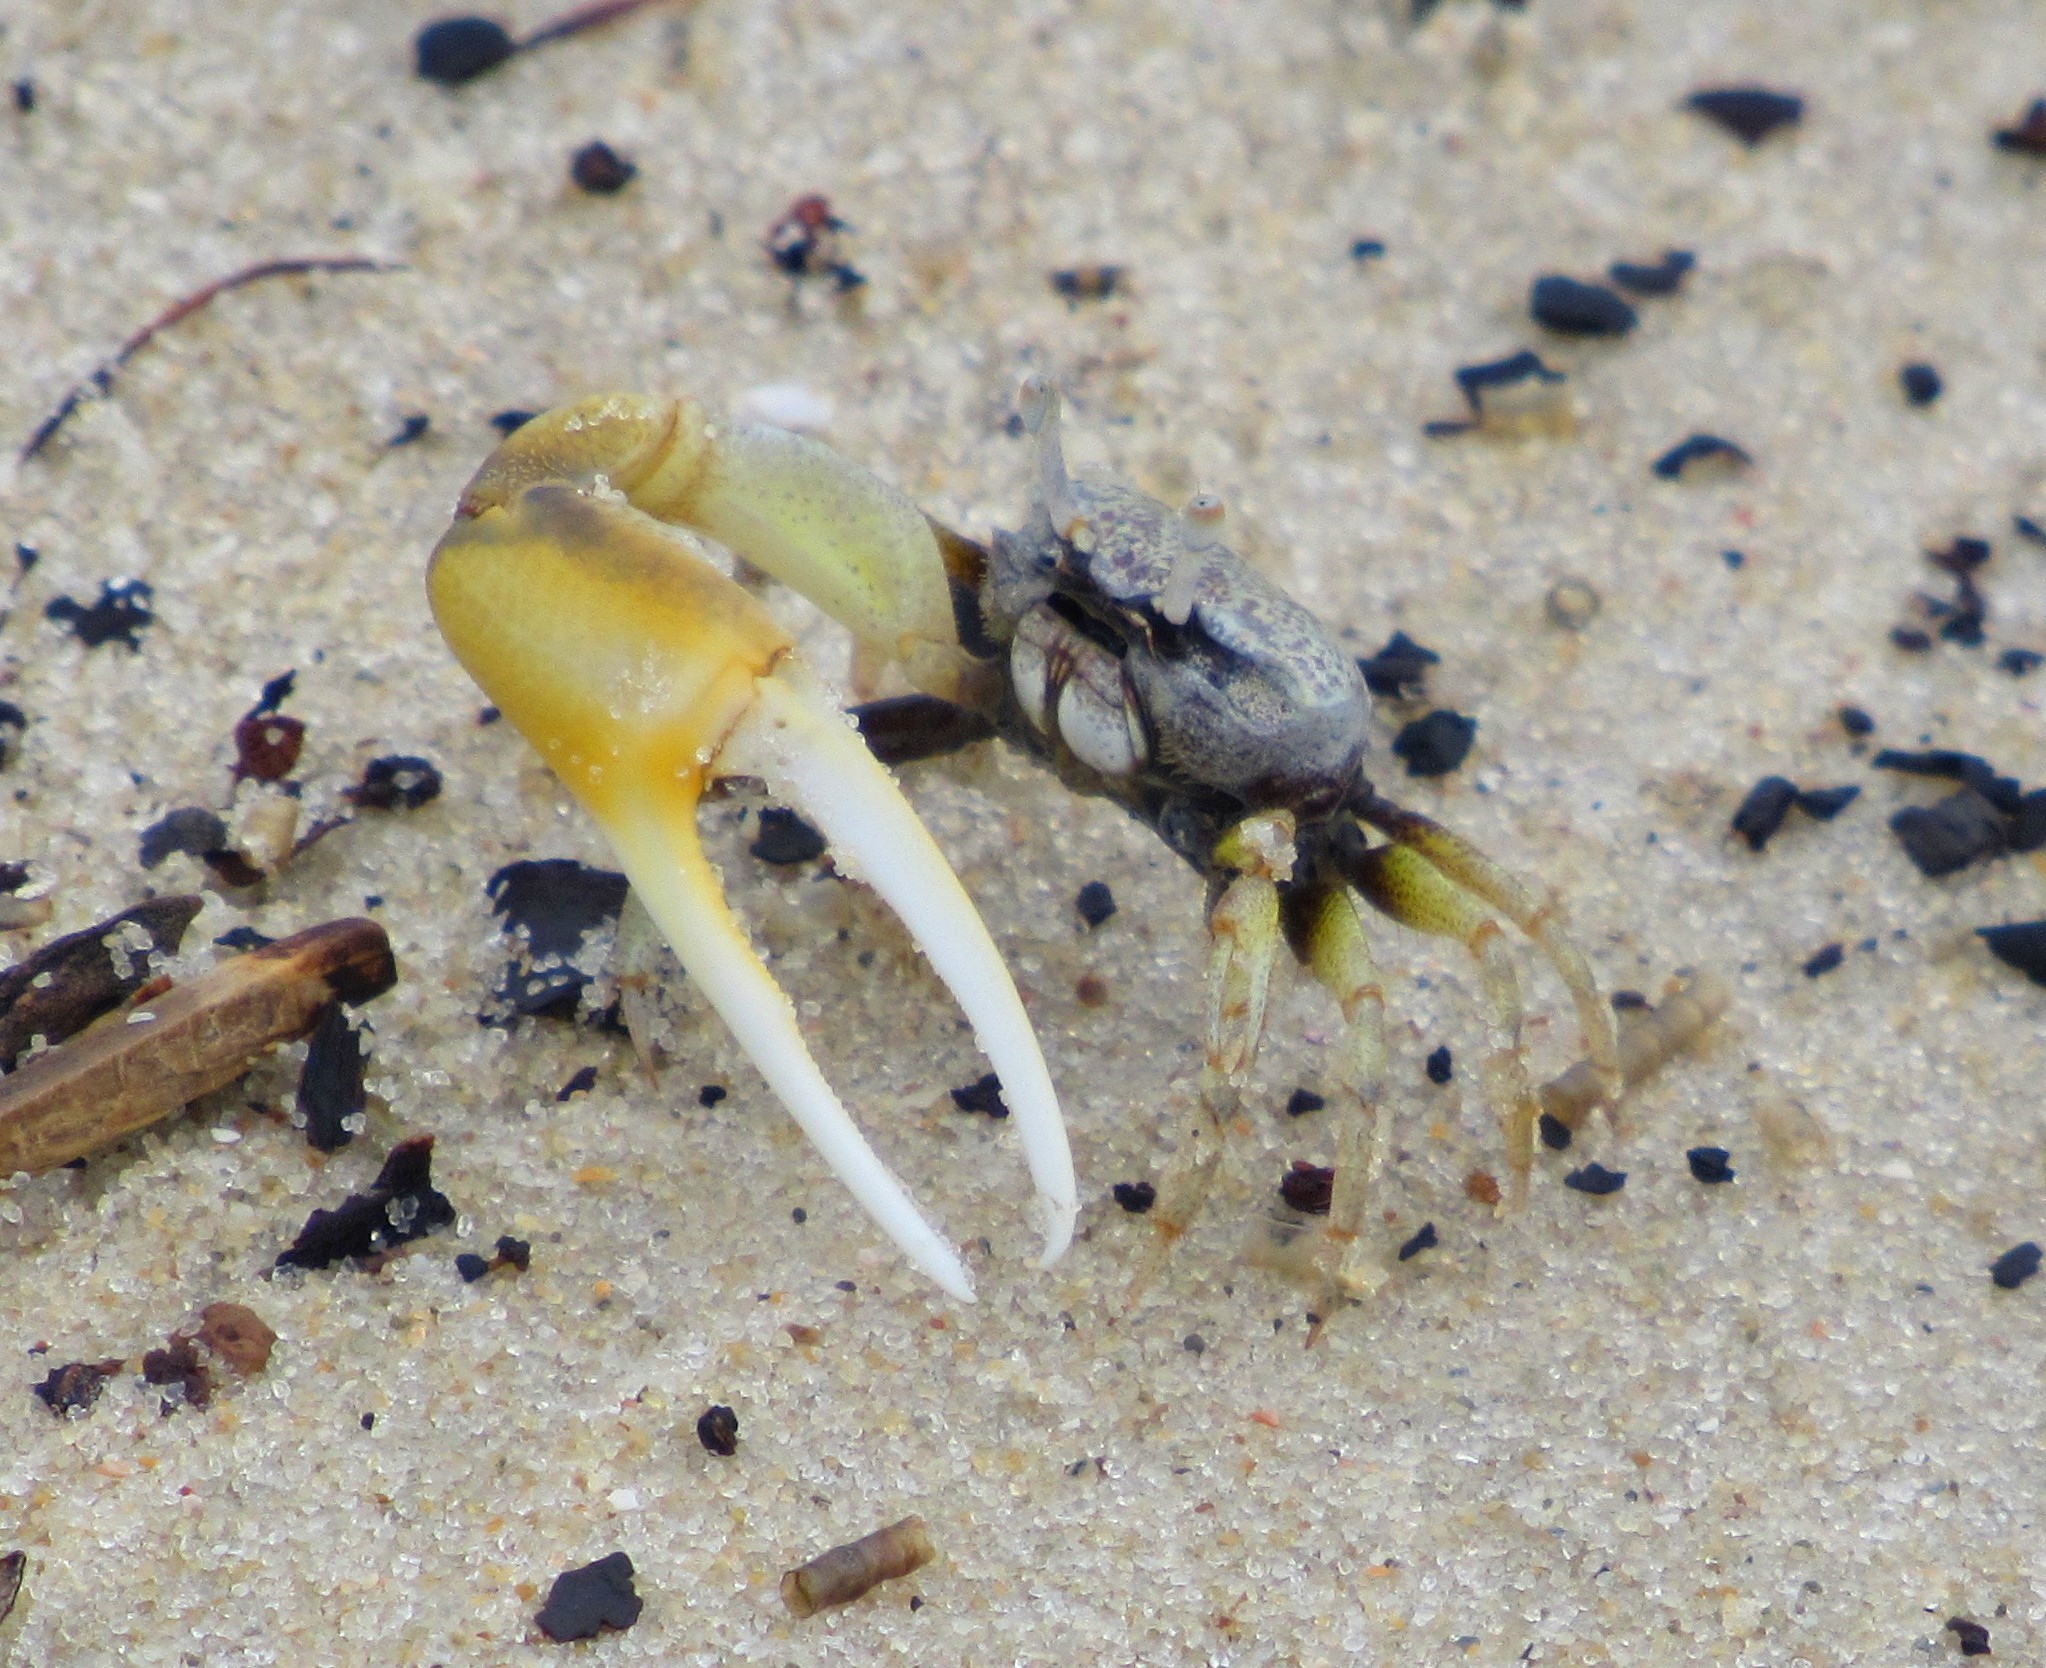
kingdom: Animalia
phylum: Arthropoda
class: Malacostraca
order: Decapoda
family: Ocypodidae
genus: Leptuca
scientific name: Leptuca leptodactyla
